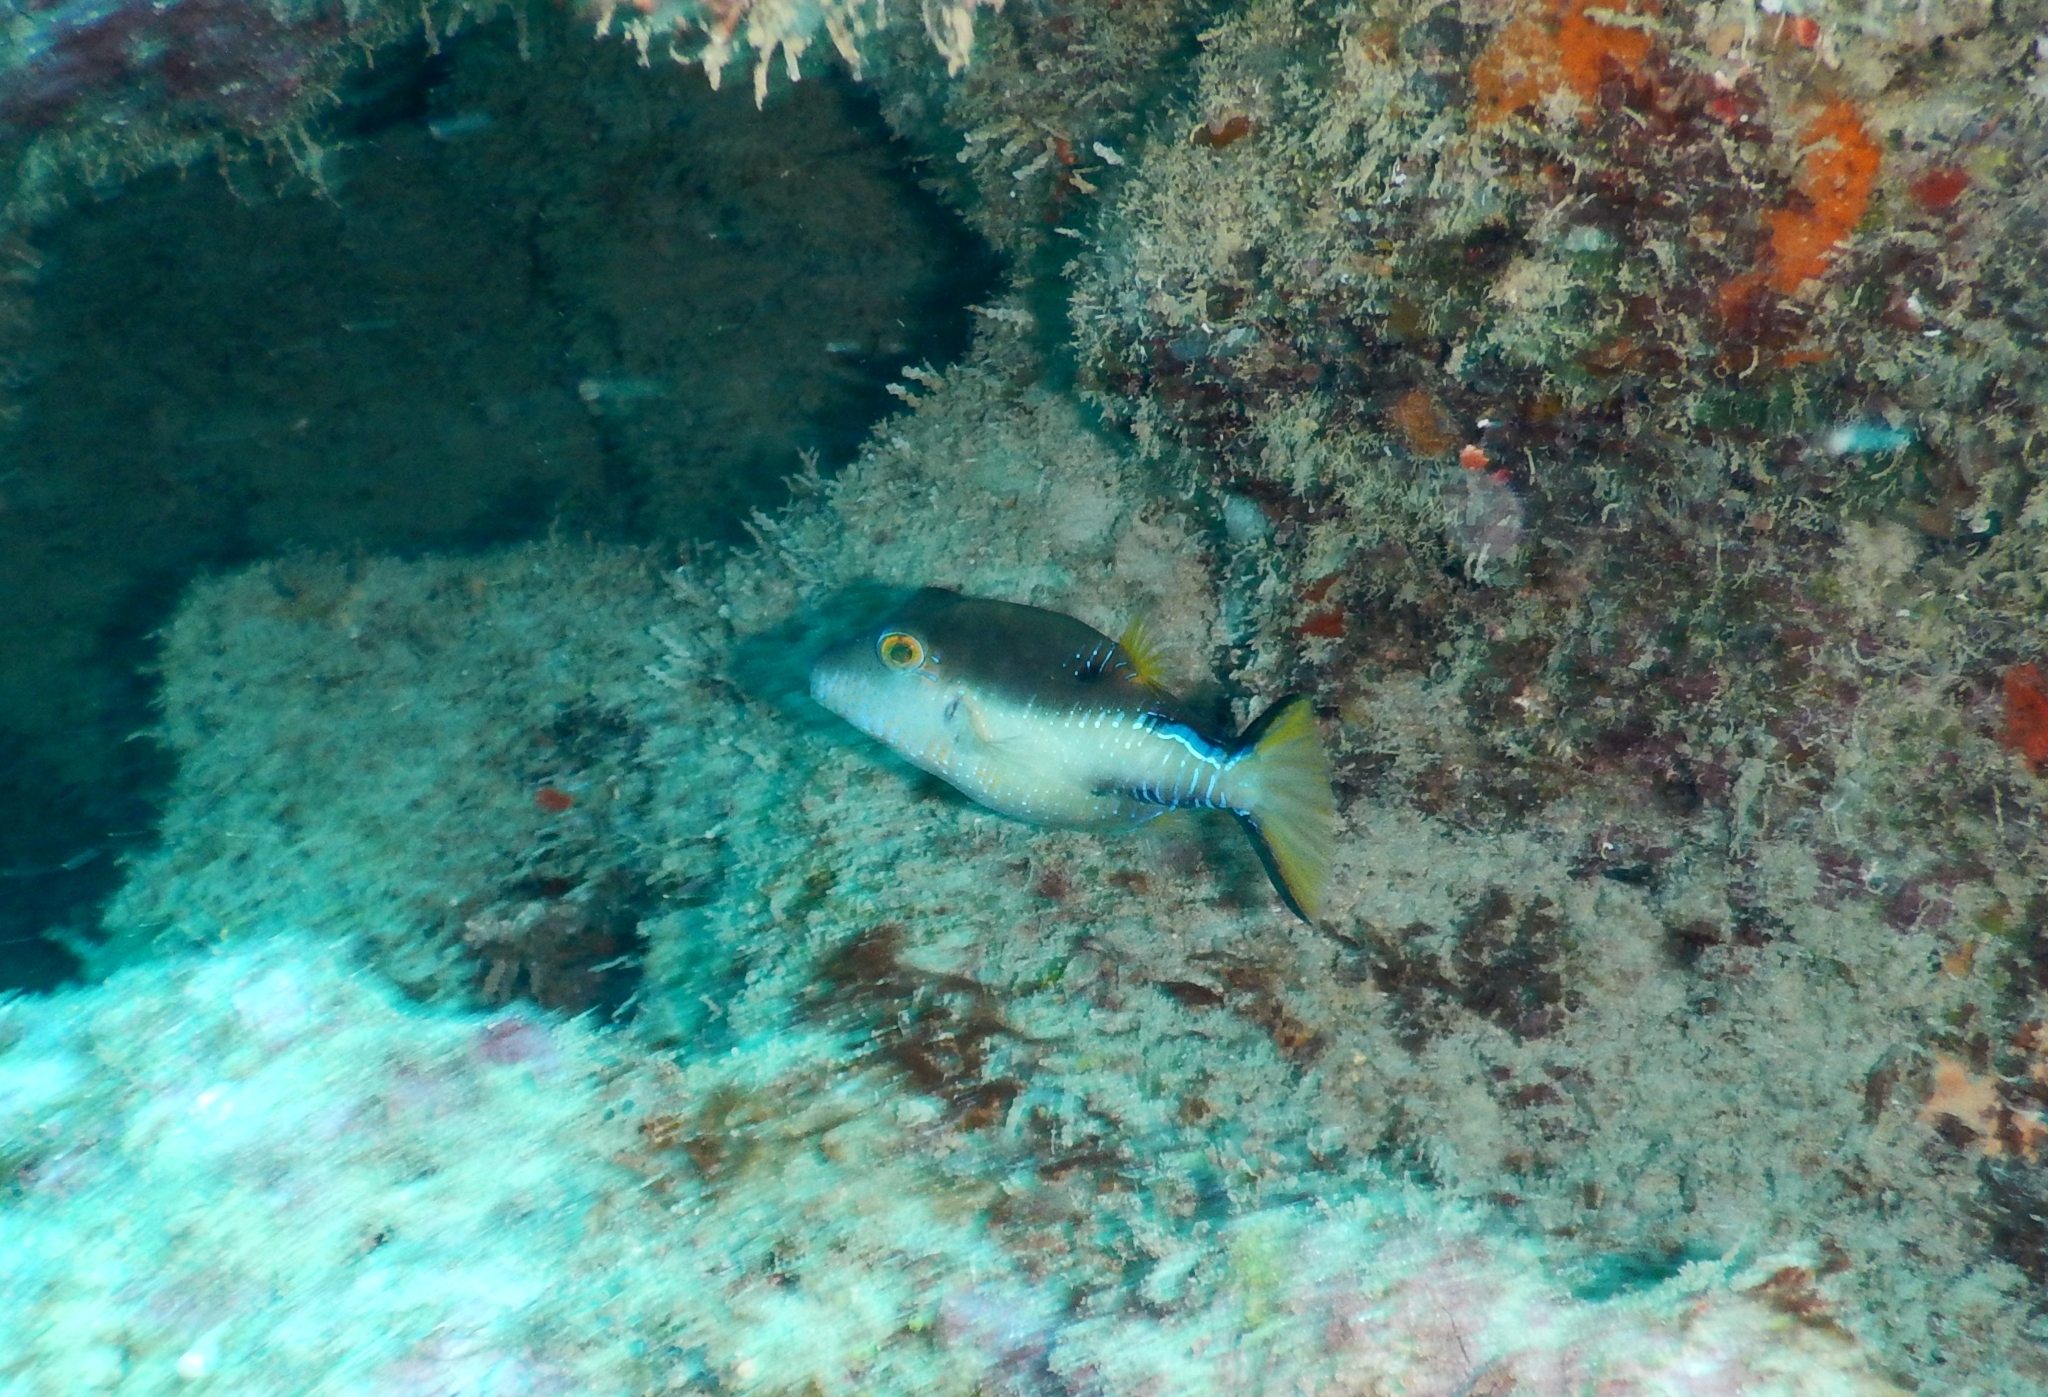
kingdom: Animalia
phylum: Chordata
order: Tetraodontiformes
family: Tetraodontidae
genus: Canthigaster
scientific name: Canthigaster rostrata
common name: Caribbean sharpnose-puffer
